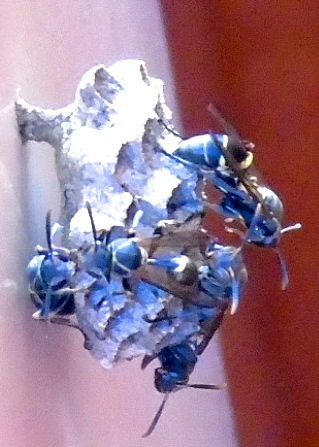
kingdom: Animalia
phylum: Arthropoda
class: Insecta
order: Hymenoptera
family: Vespidae
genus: Mischocyttarus
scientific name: Mischocyttarus rufidens
